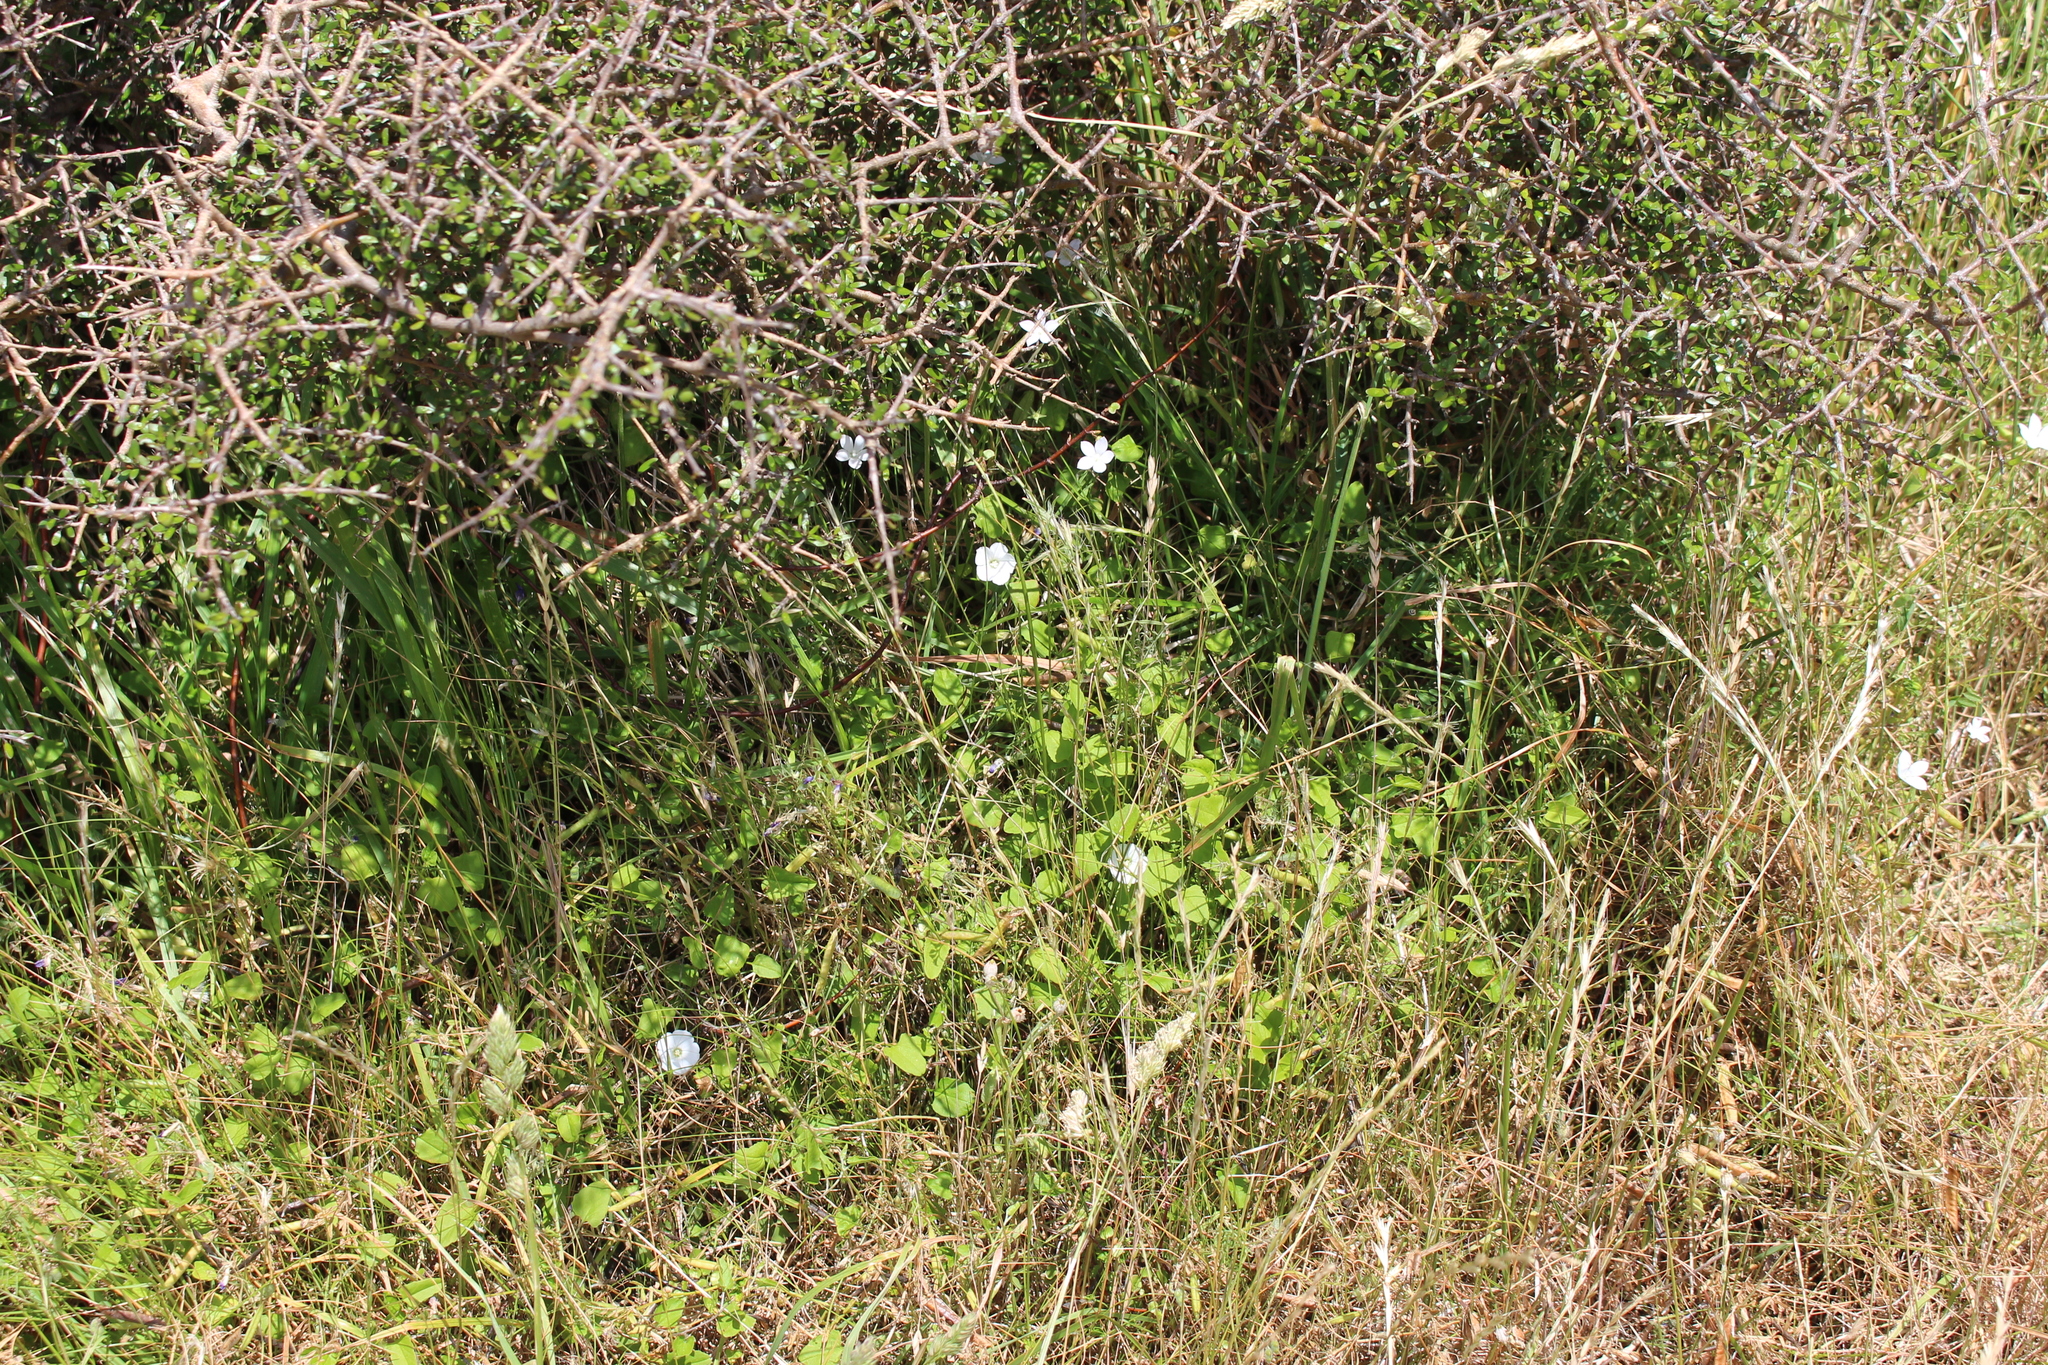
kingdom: Plantae
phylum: Tracheophyta
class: Magnoliopsida
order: Solanales
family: Convolvulaceae
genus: Convolvulus
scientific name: Convolvulus waitaha
